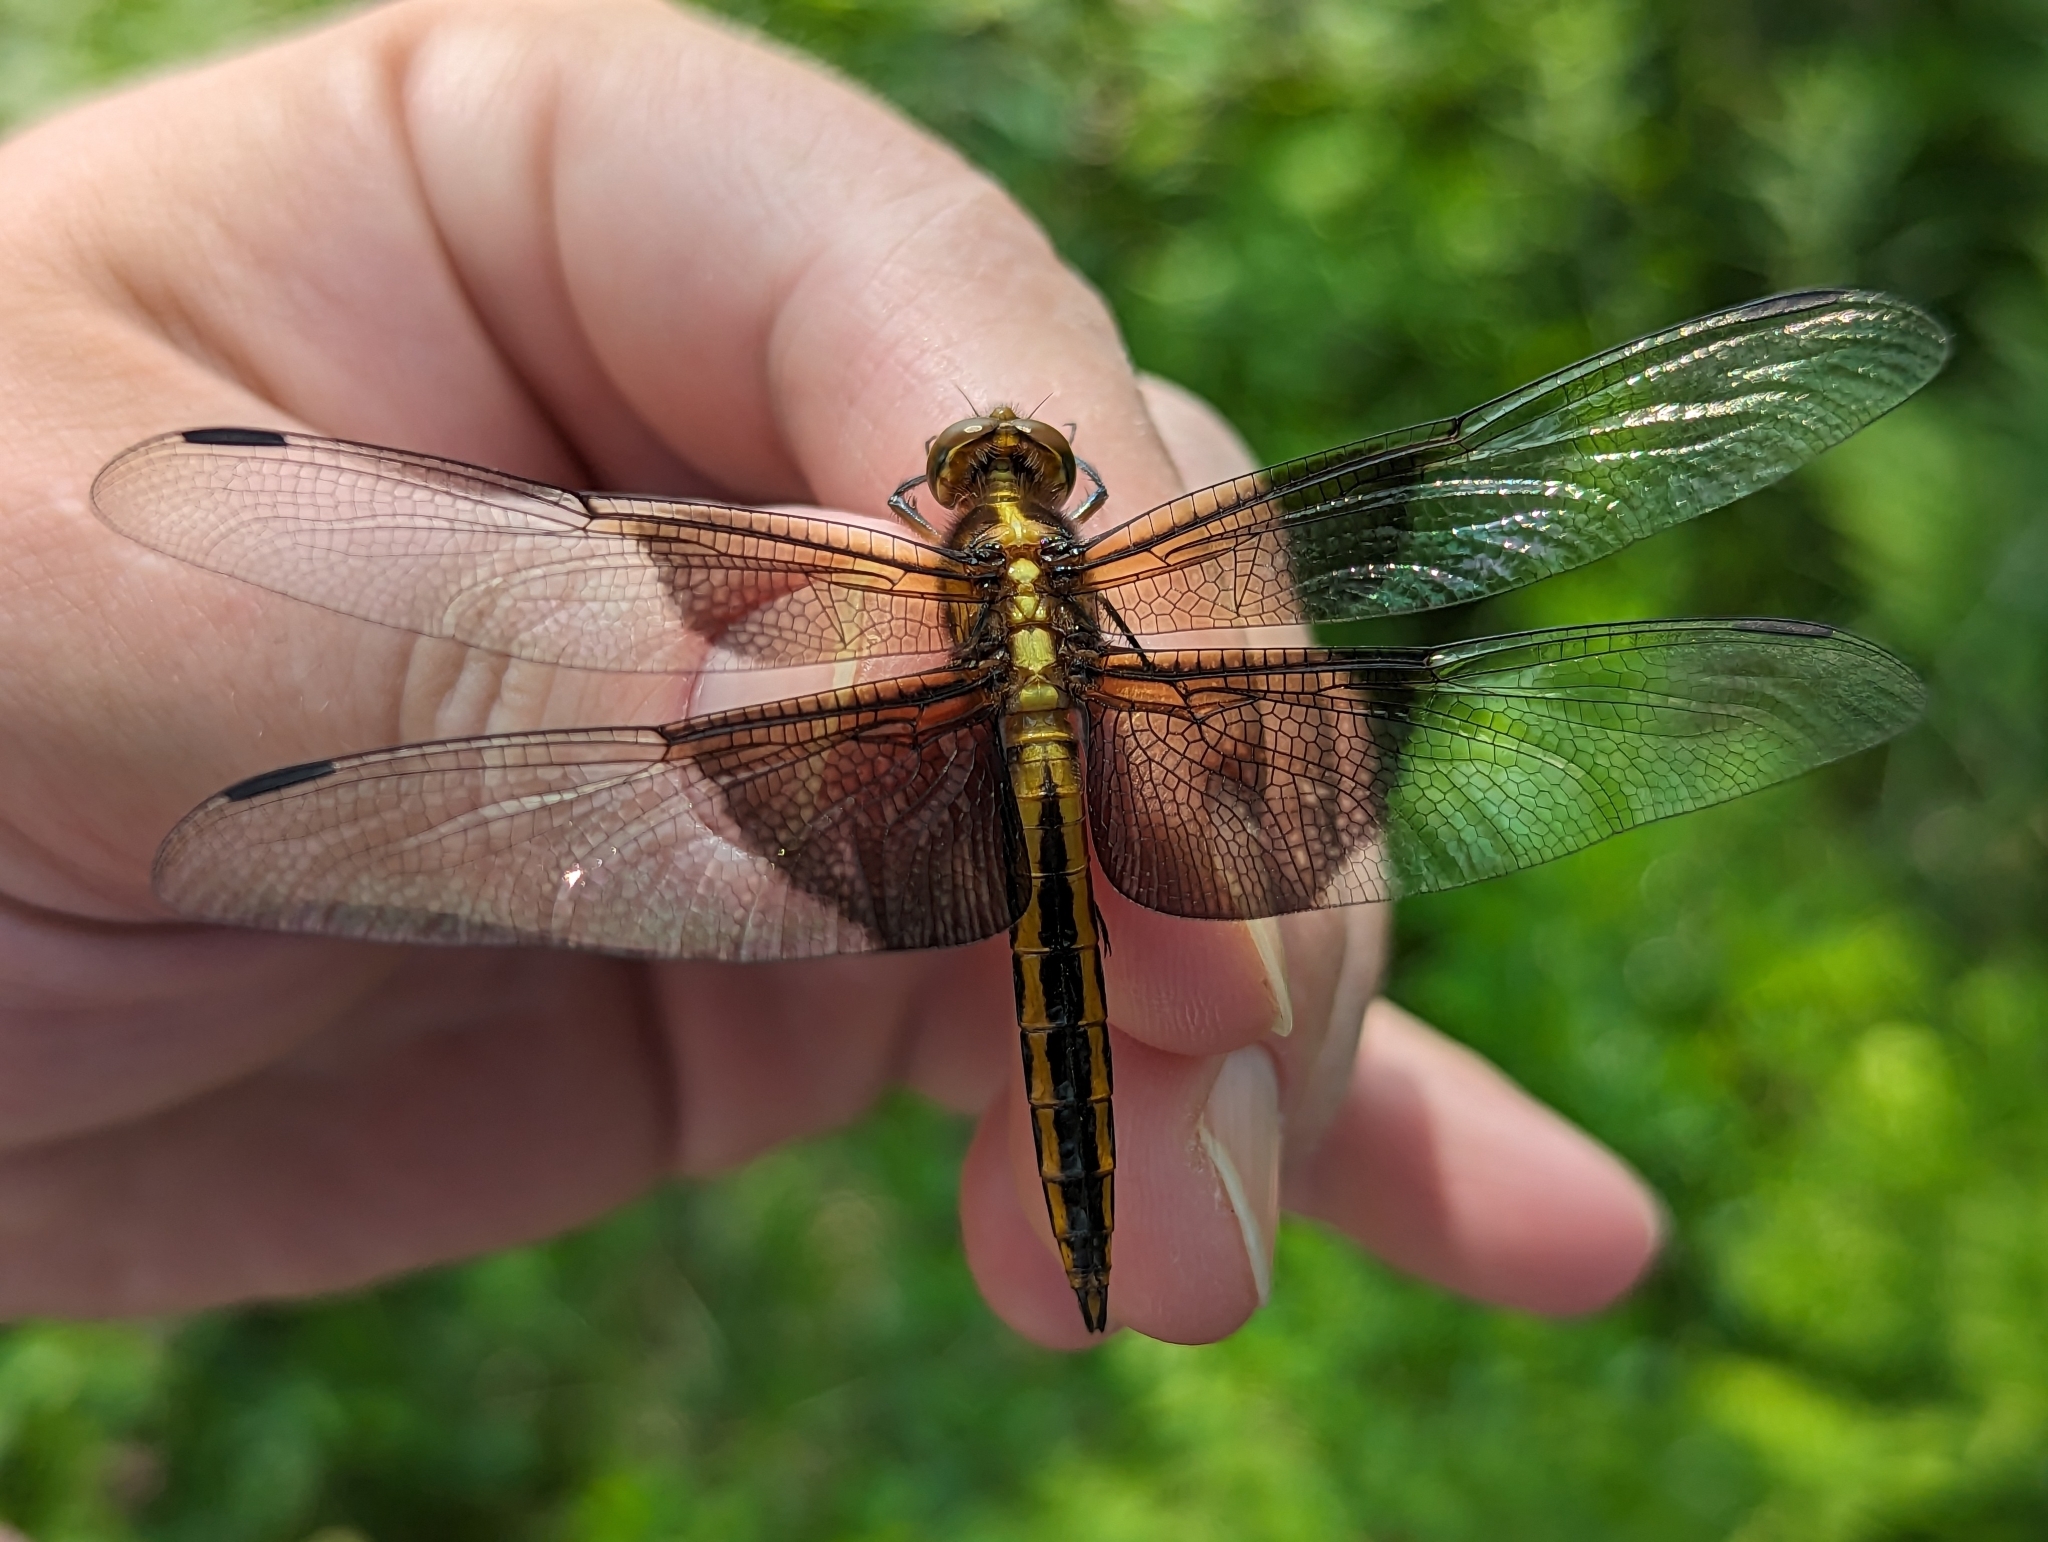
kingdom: Animalia
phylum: Arthropoda
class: Insecta
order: Odonata
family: Libellulidae
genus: Libellula
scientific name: Libellula luctuosa
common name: Widow skimmer
